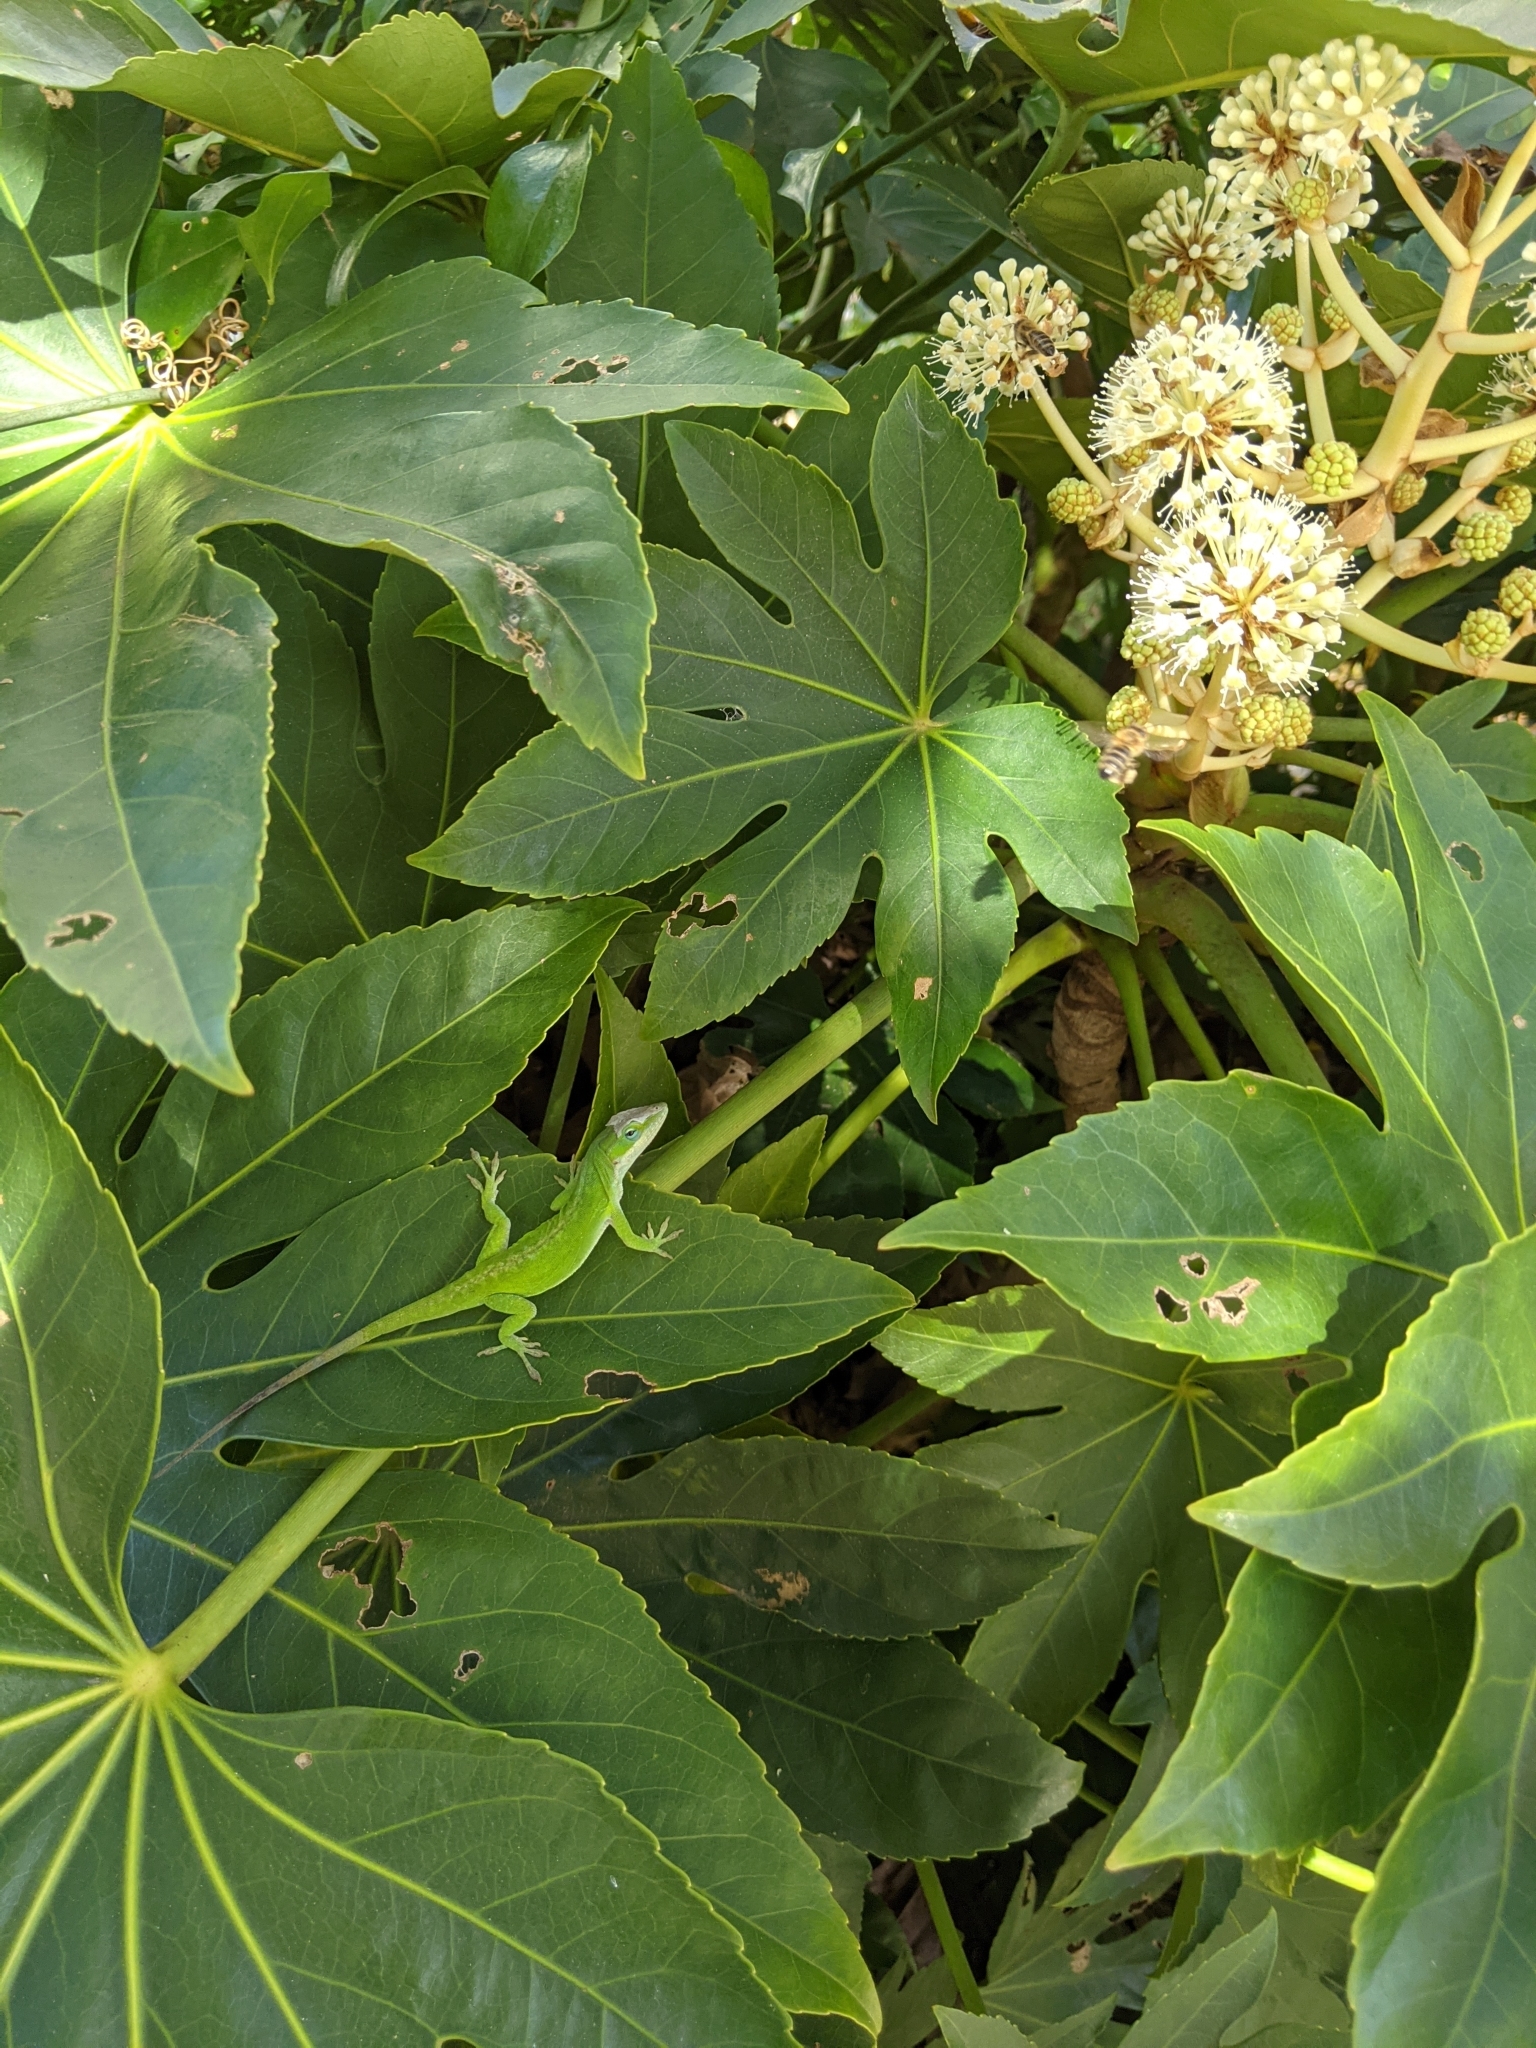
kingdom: Animalia
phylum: Chordata
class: Squamata
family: Dactyloidae
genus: Anolis
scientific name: Anolis carolinensis
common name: Green anole
